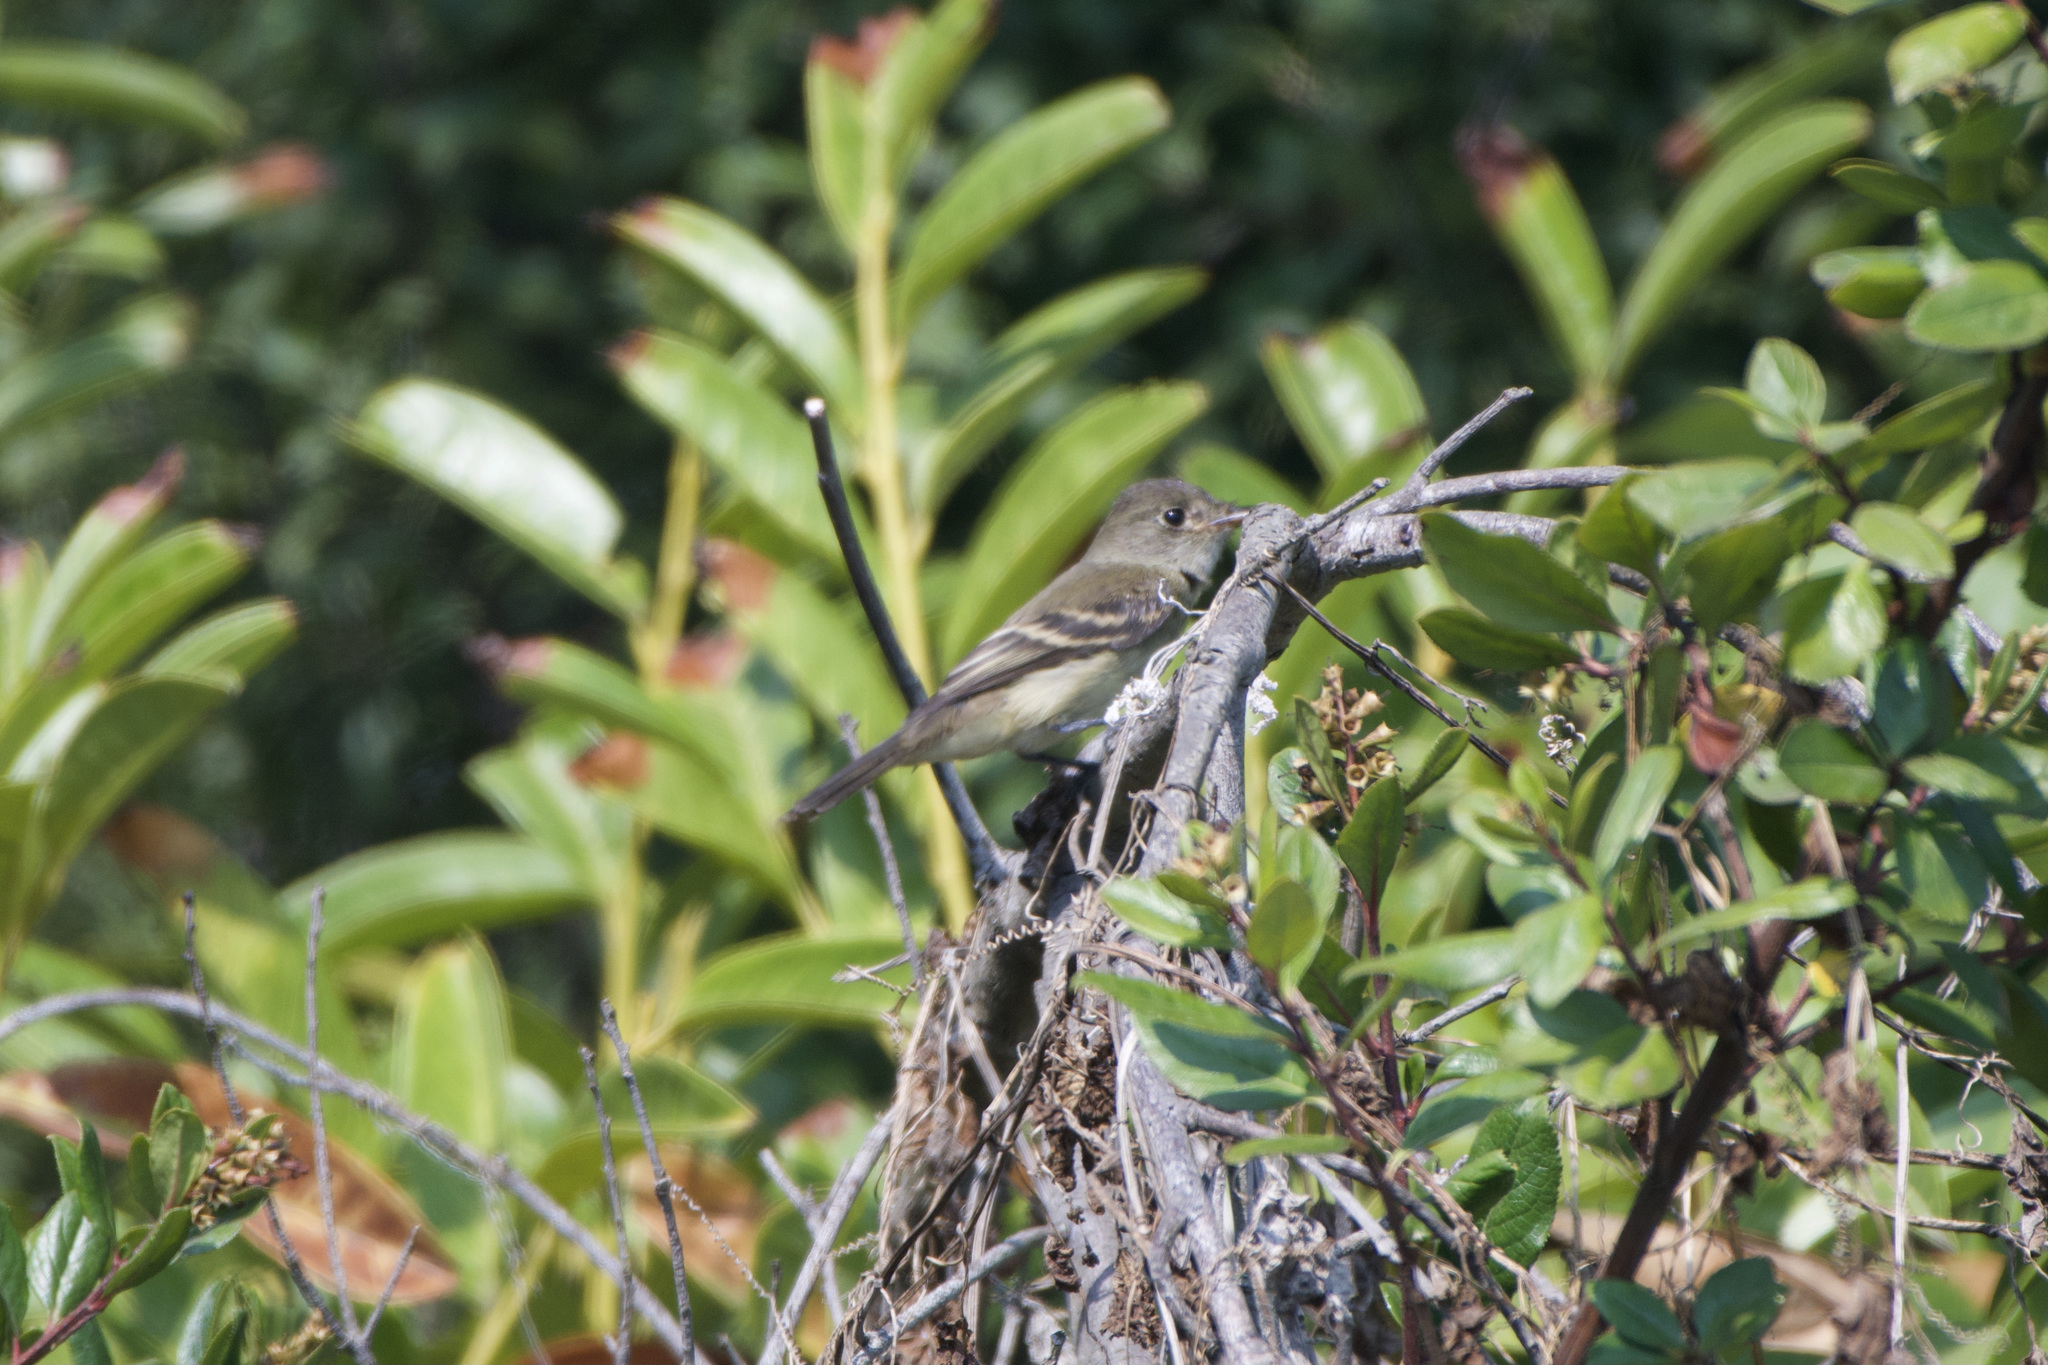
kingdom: Animalia
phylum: Chordata
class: Aves
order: Passeriformes
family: Tyrannidae
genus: Empidonax
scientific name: Empidonax traillii
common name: Willow flycatcher
